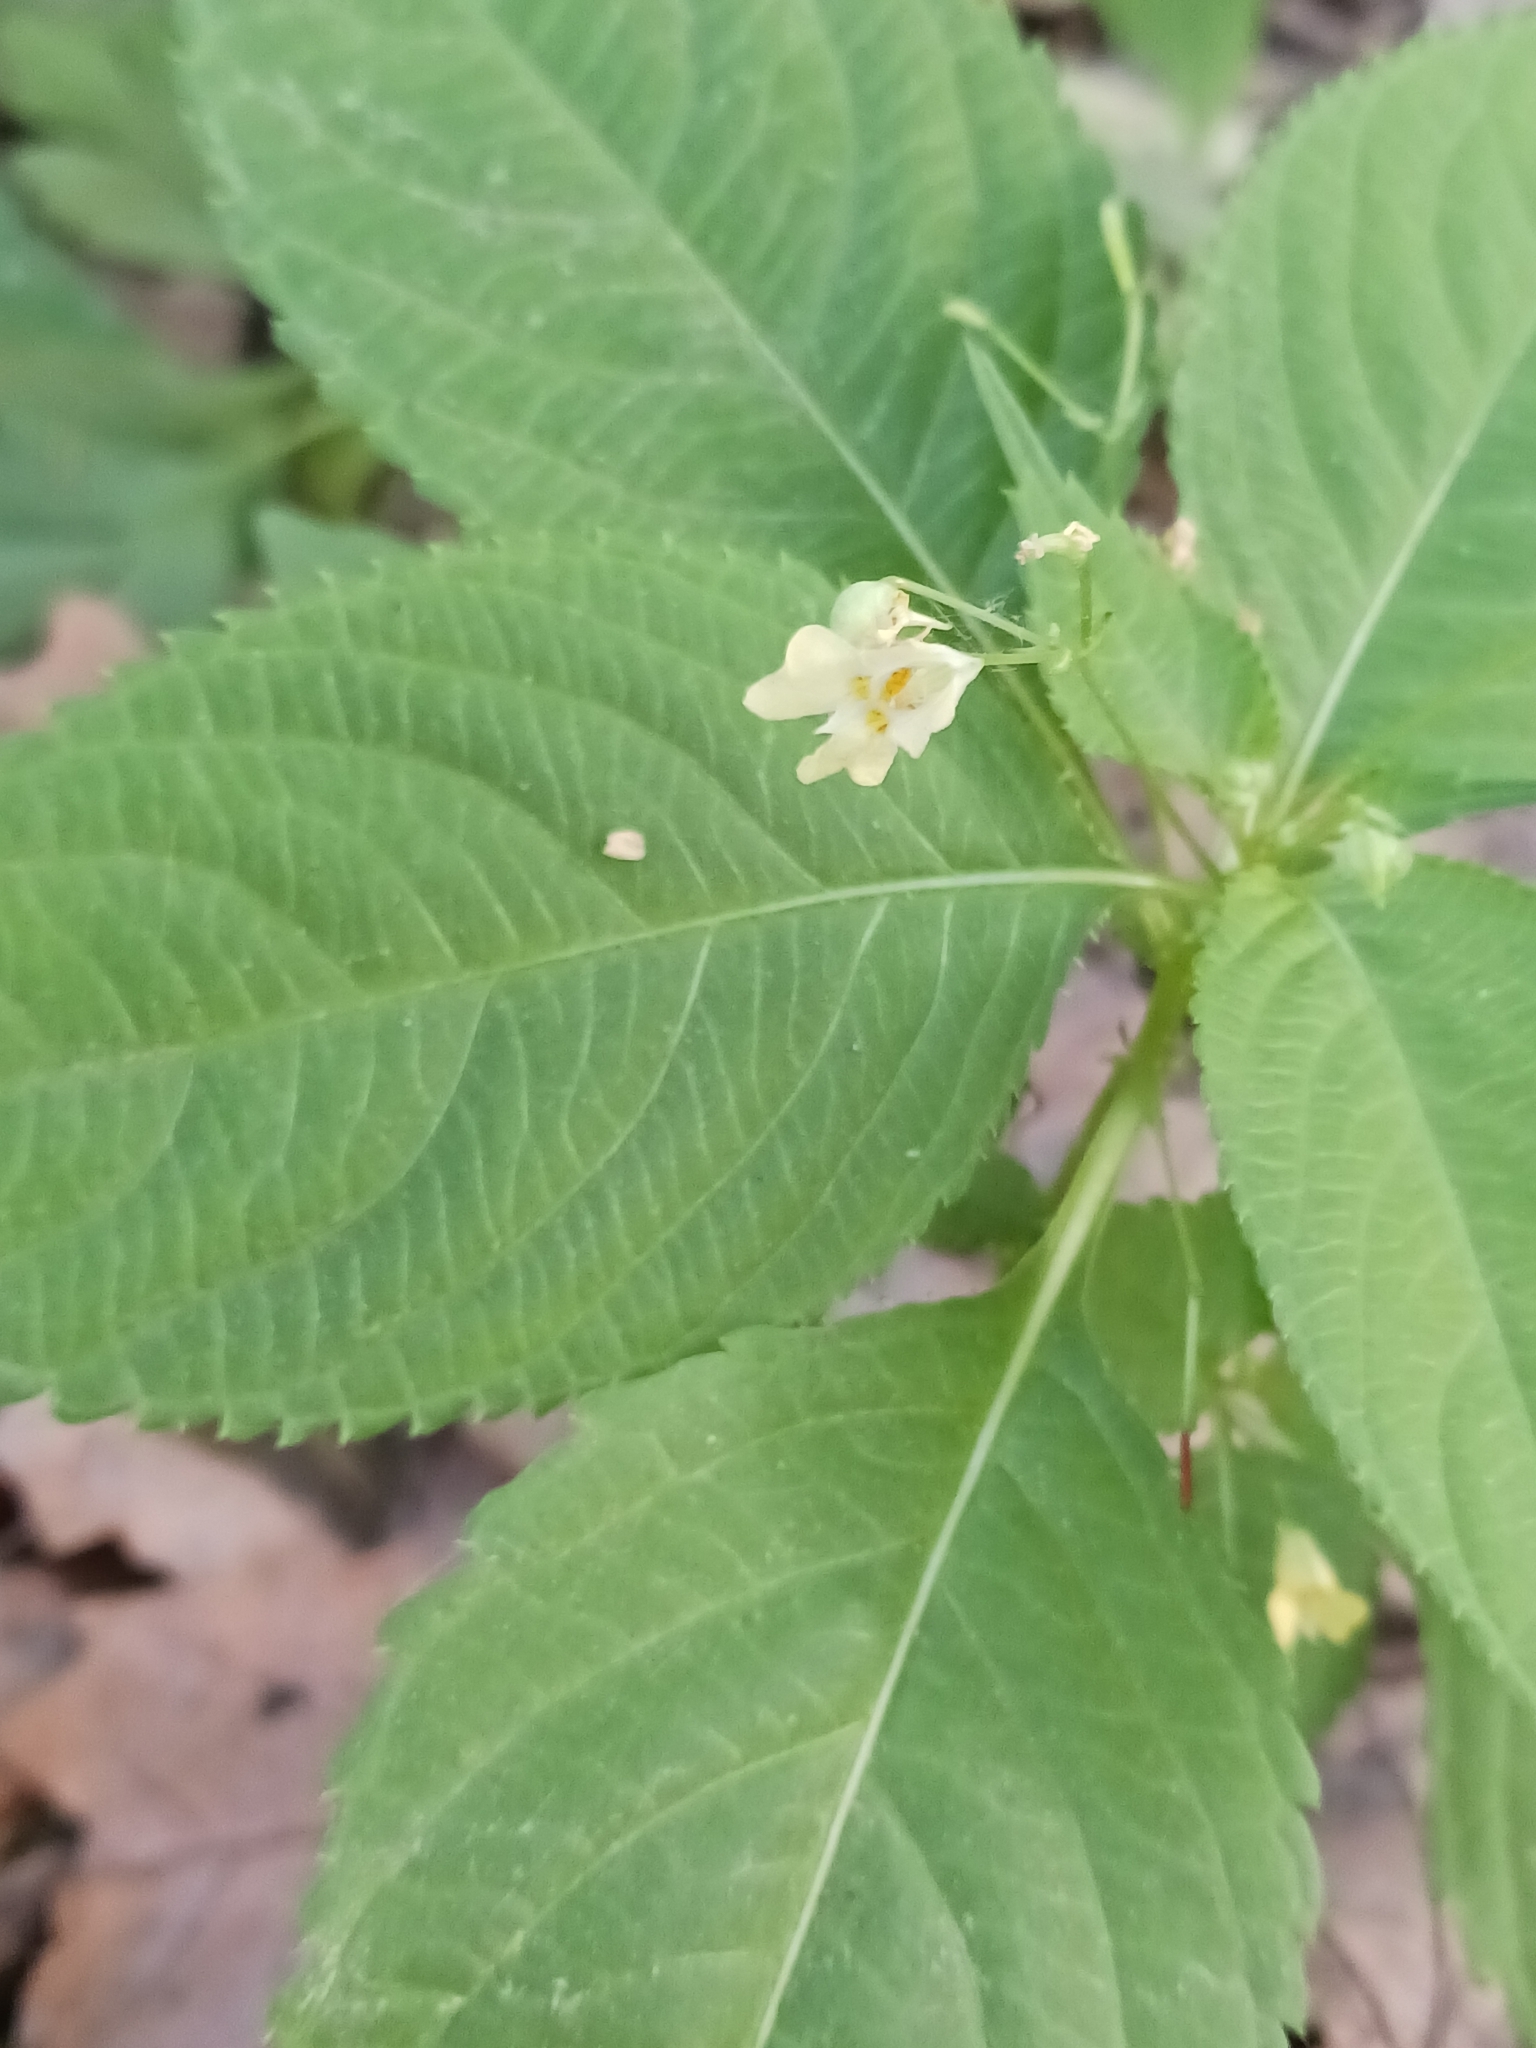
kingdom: Plantae
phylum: Tracheophyta
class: Magnoliopsida
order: Ericales
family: Balsaminaceae
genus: Impatiens
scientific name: Impatiens parviflora
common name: Small balsam
